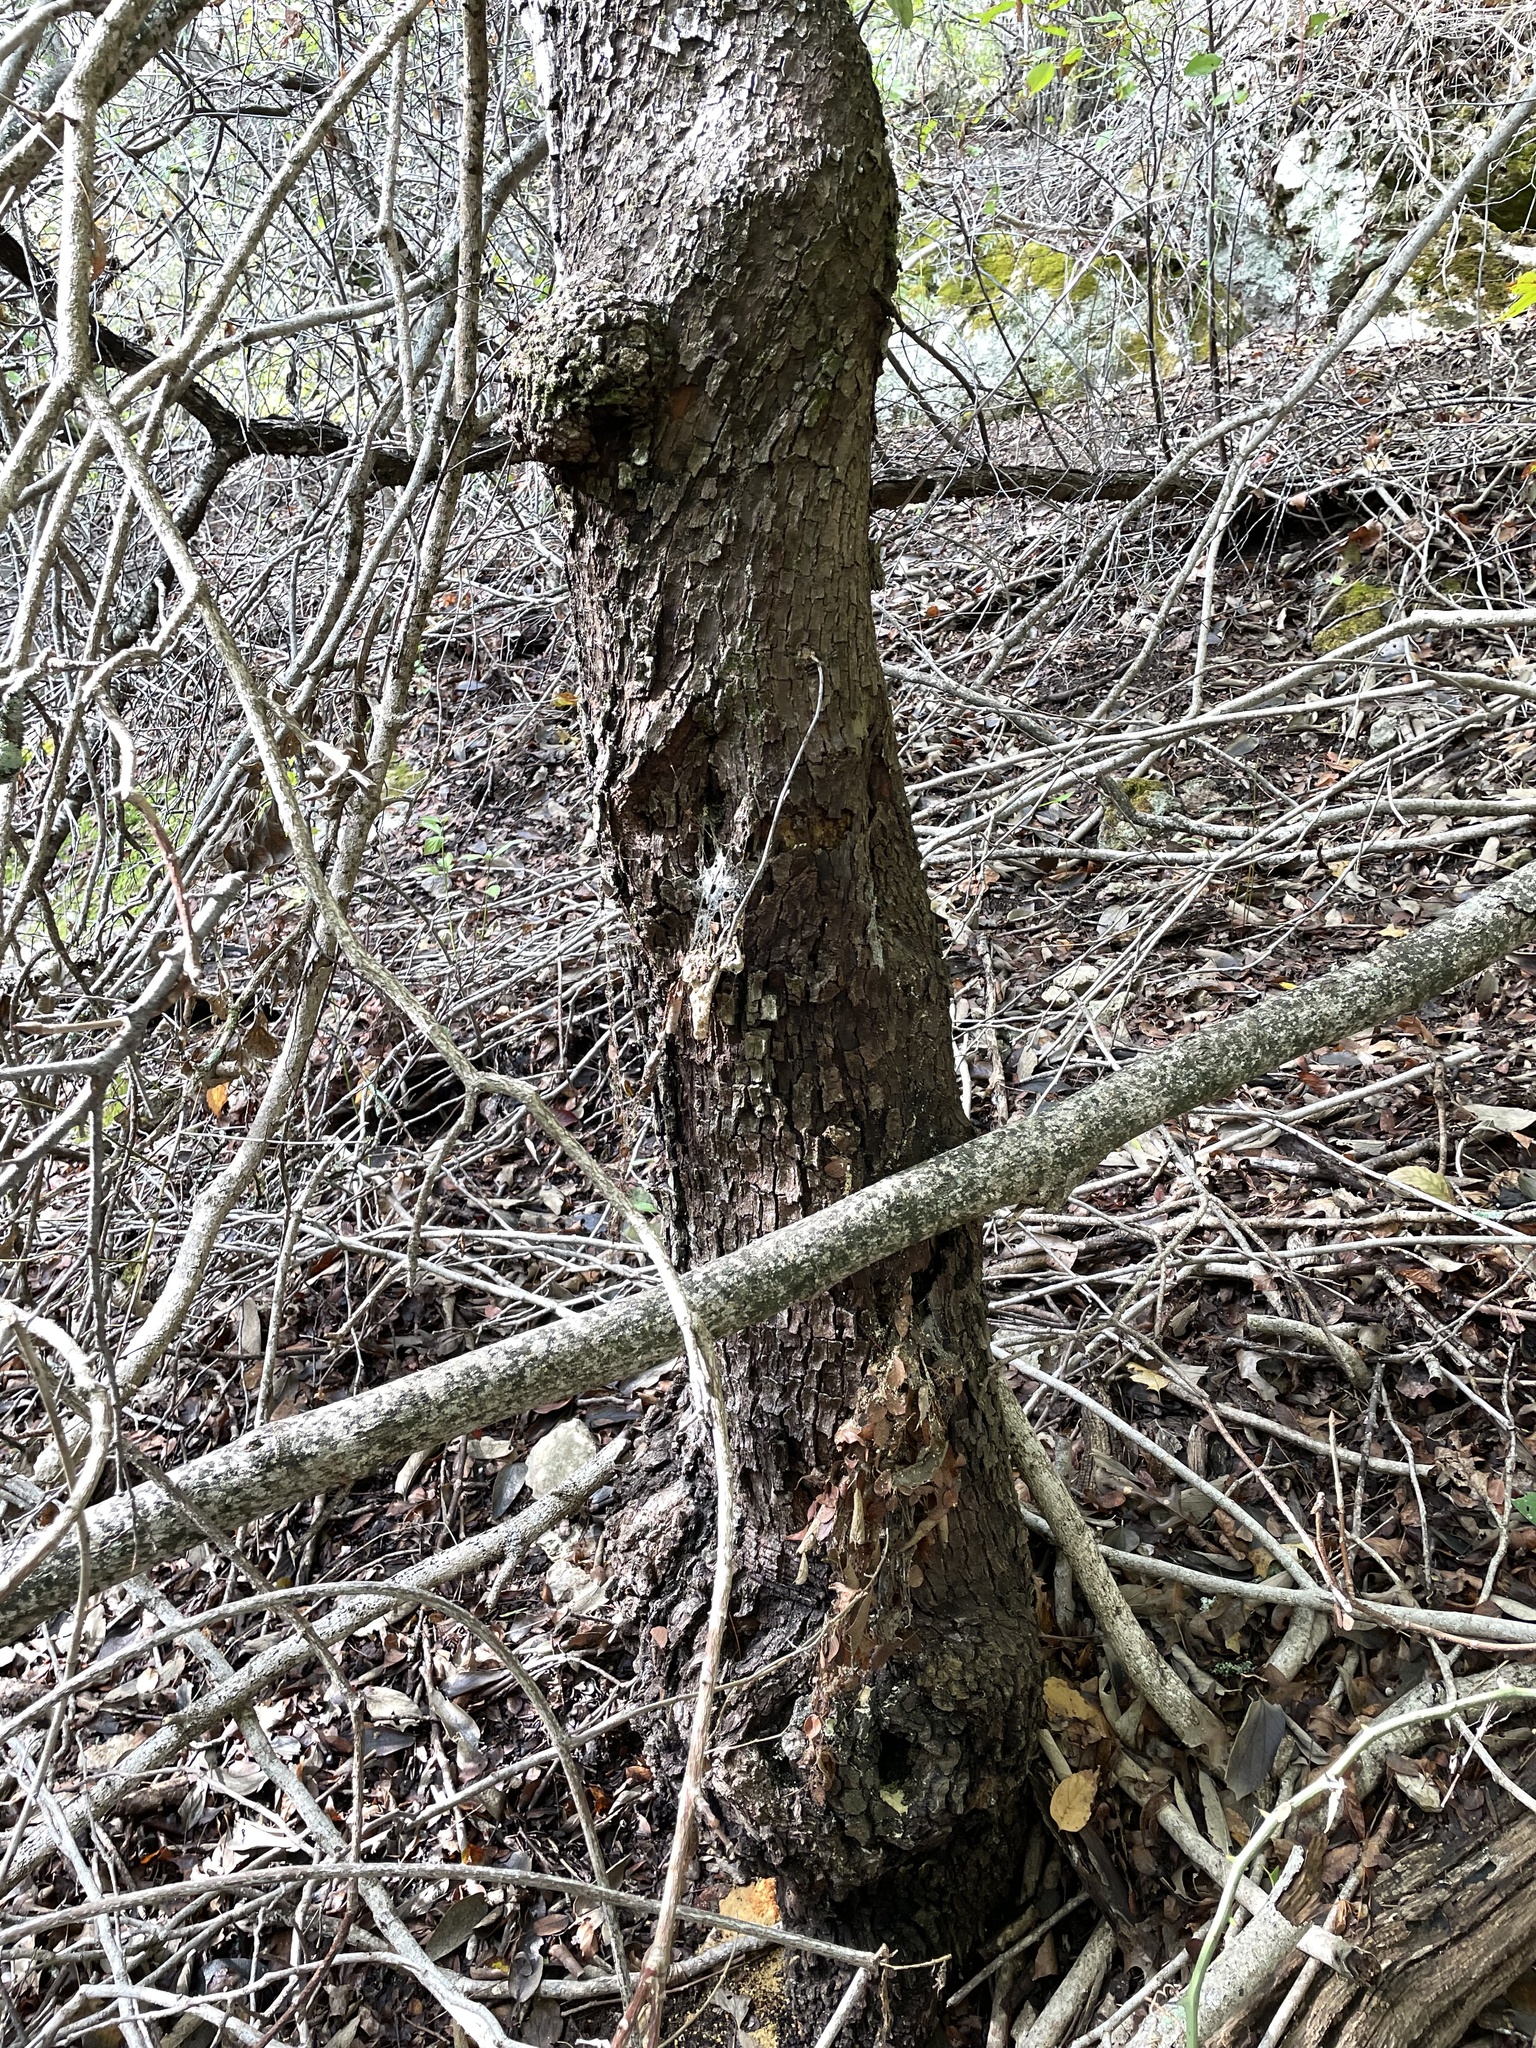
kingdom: Plantae
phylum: Tracheophyta
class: Magnoliopsida
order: Ericales
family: Sapotaceae
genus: Sideroxylon
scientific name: Sideroxylon lanuginosum
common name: Chittamwood
